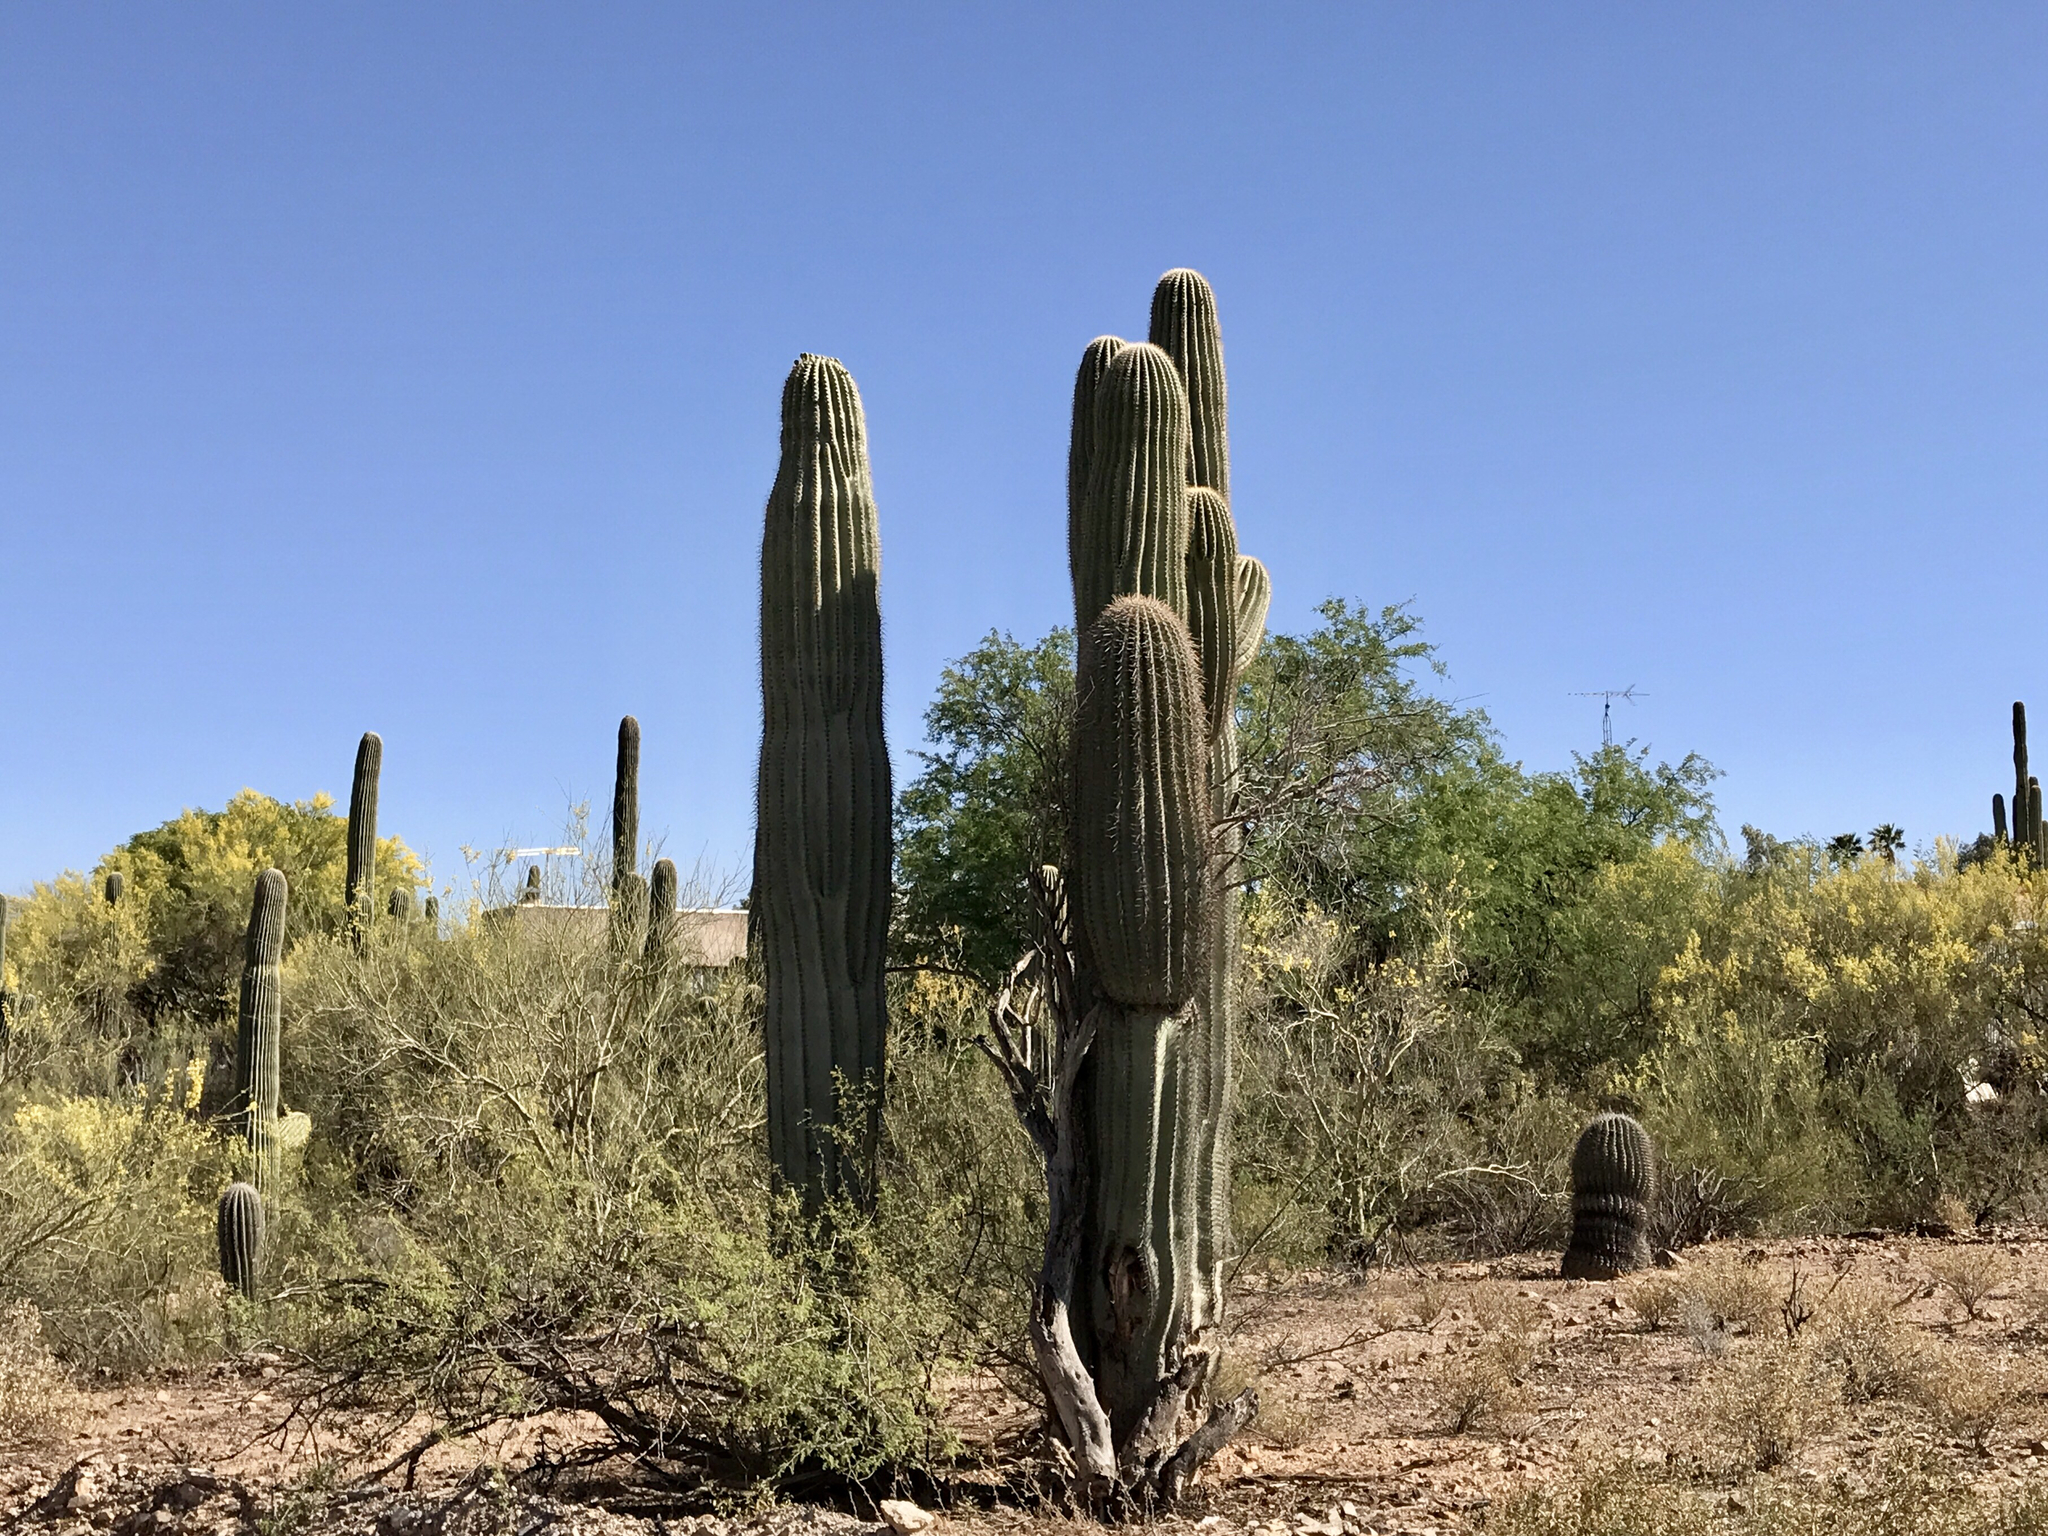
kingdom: Plantae
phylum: Tracheophyta
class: Magnoliopsida
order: Caryophyllales
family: Cactaceae
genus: Carnegiea
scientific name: Carnegiea gigantea
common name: Saguaro
